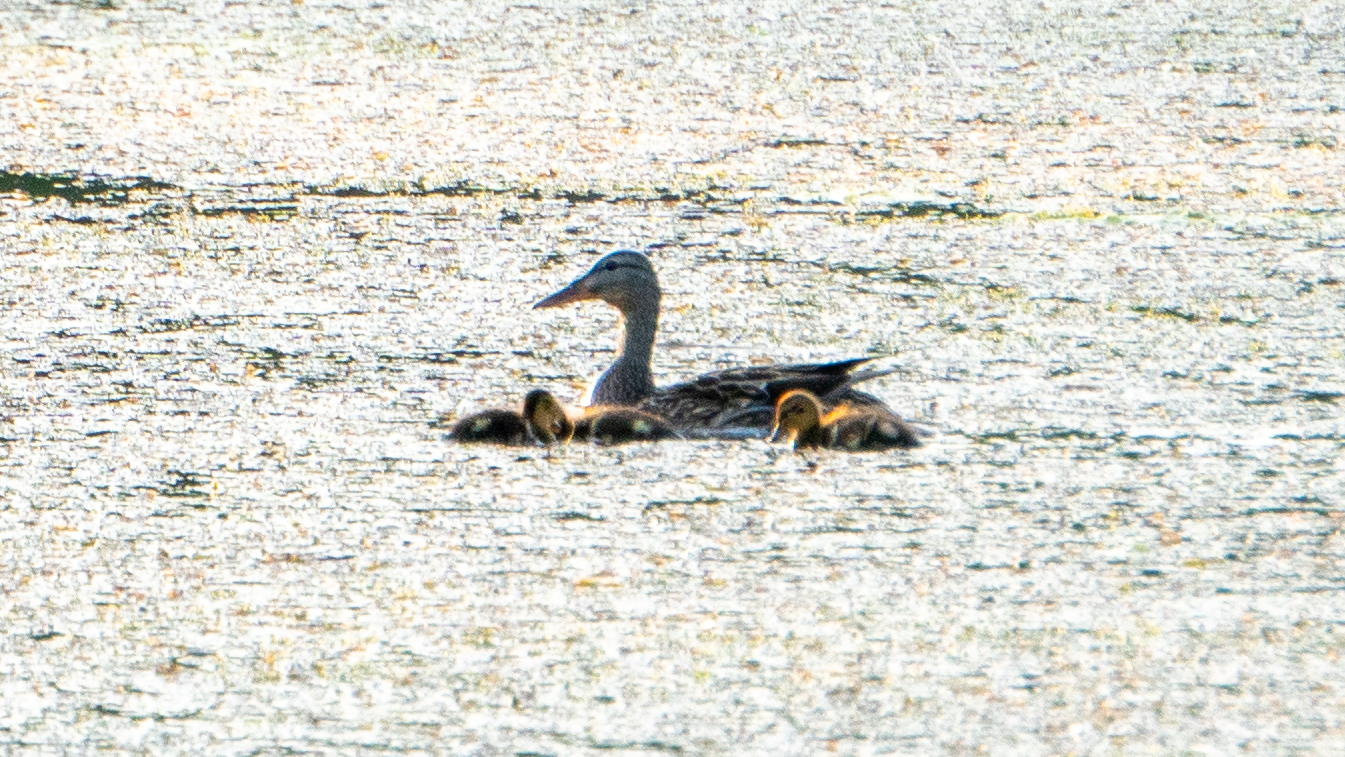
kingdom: Animalia
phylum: Chordata
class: Aves
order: Anseriformes
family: Anatidae
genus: Anas
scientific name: Anas platyrhynchos
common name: Mallard
